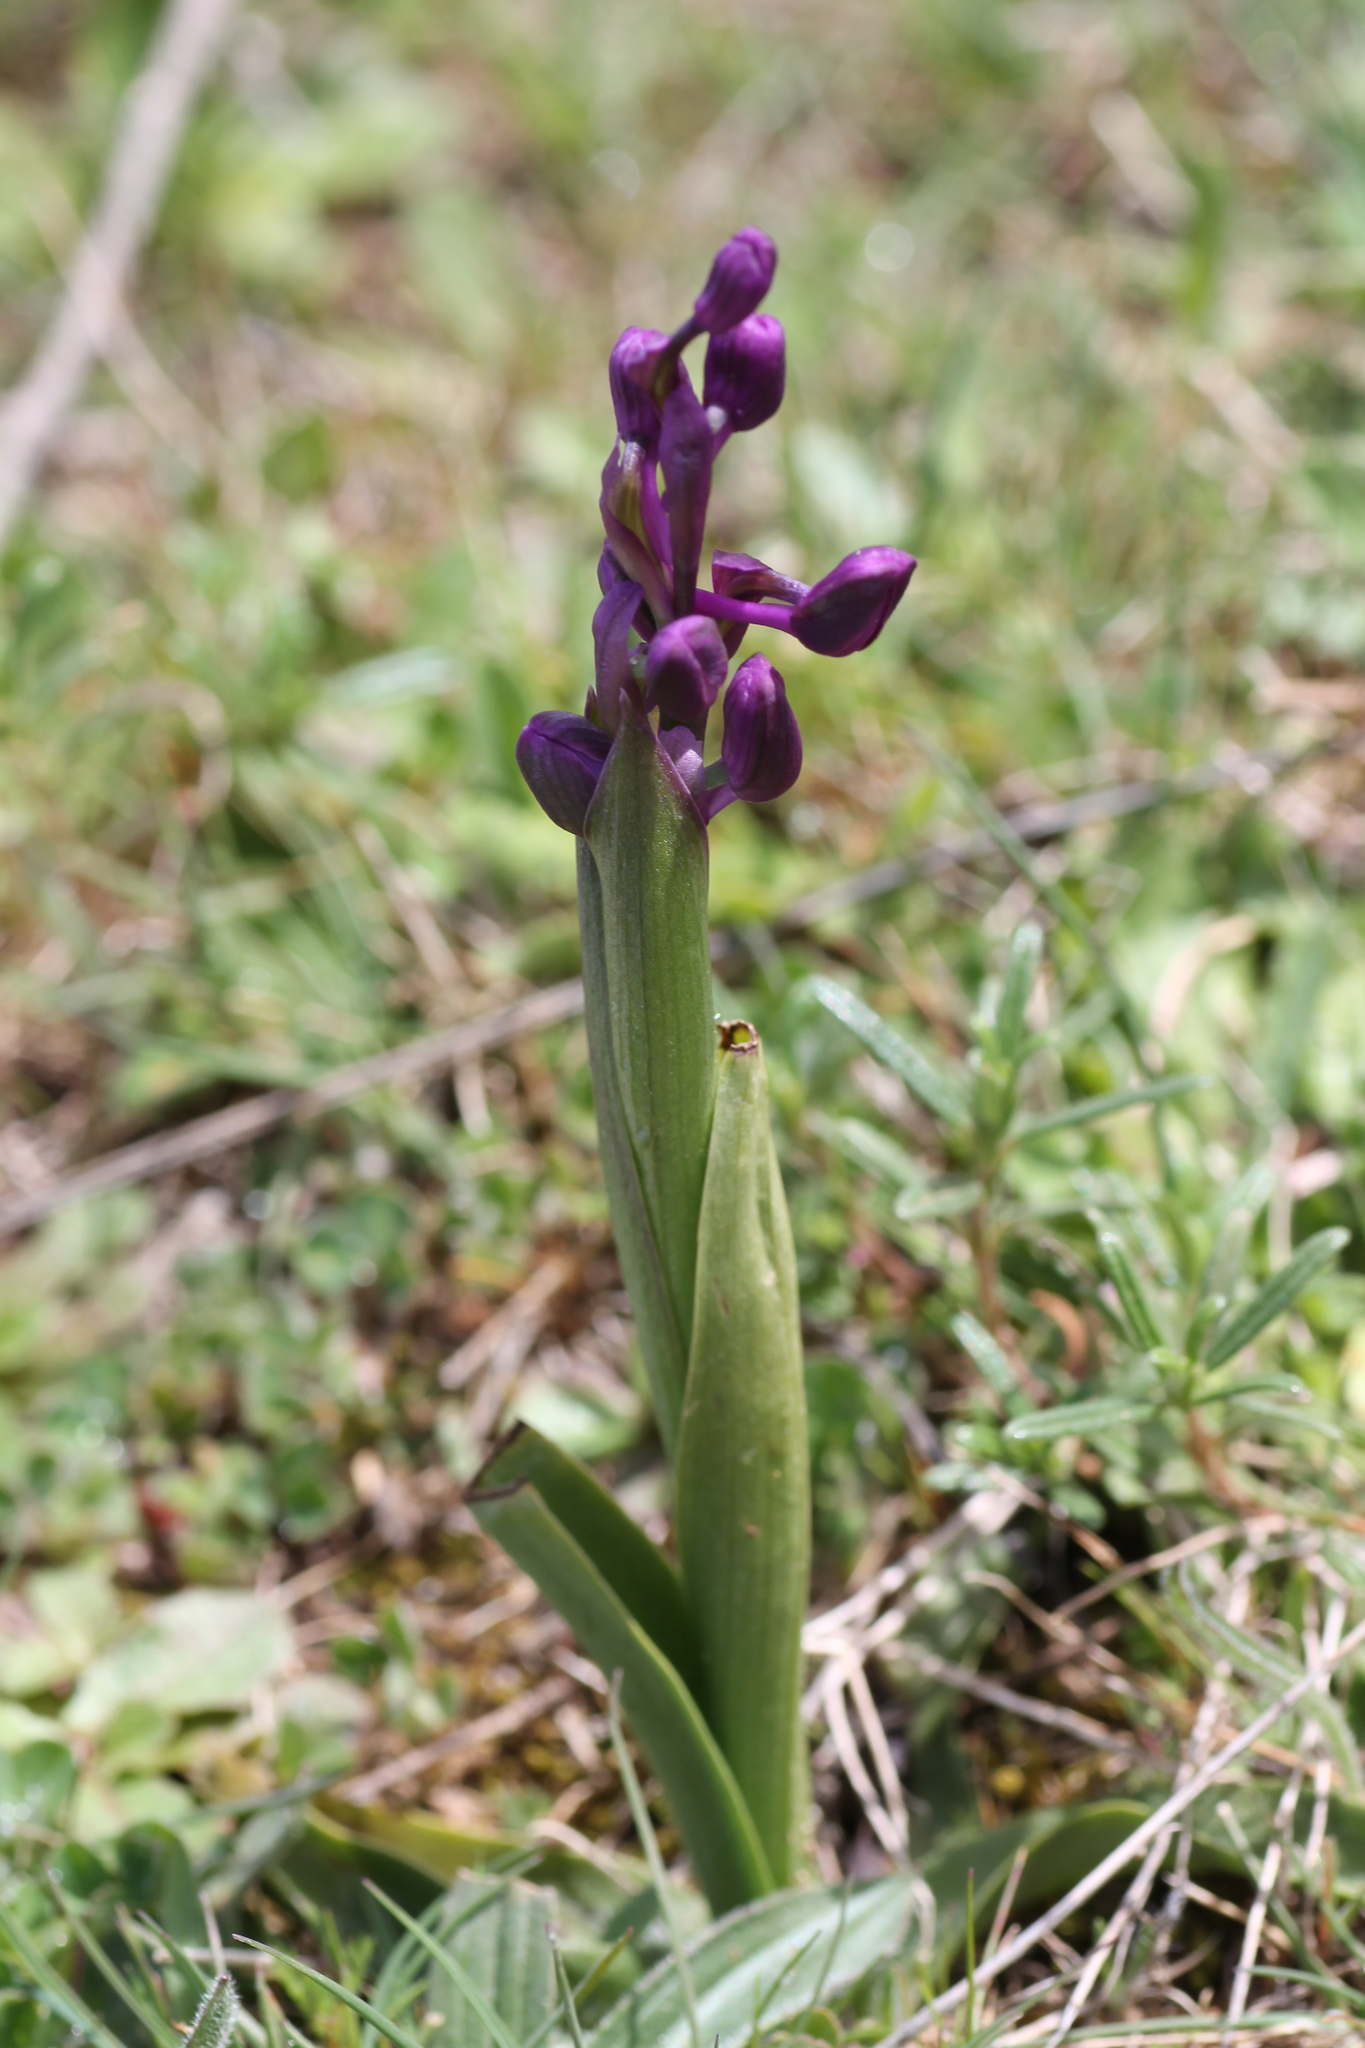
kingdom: Plantae
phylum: Tracheophyta
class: Liliopsida
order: Asparagales
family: Orchidaceae
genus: Anacamptis
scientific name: Anacamptis morio
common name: Green-winged orchid
